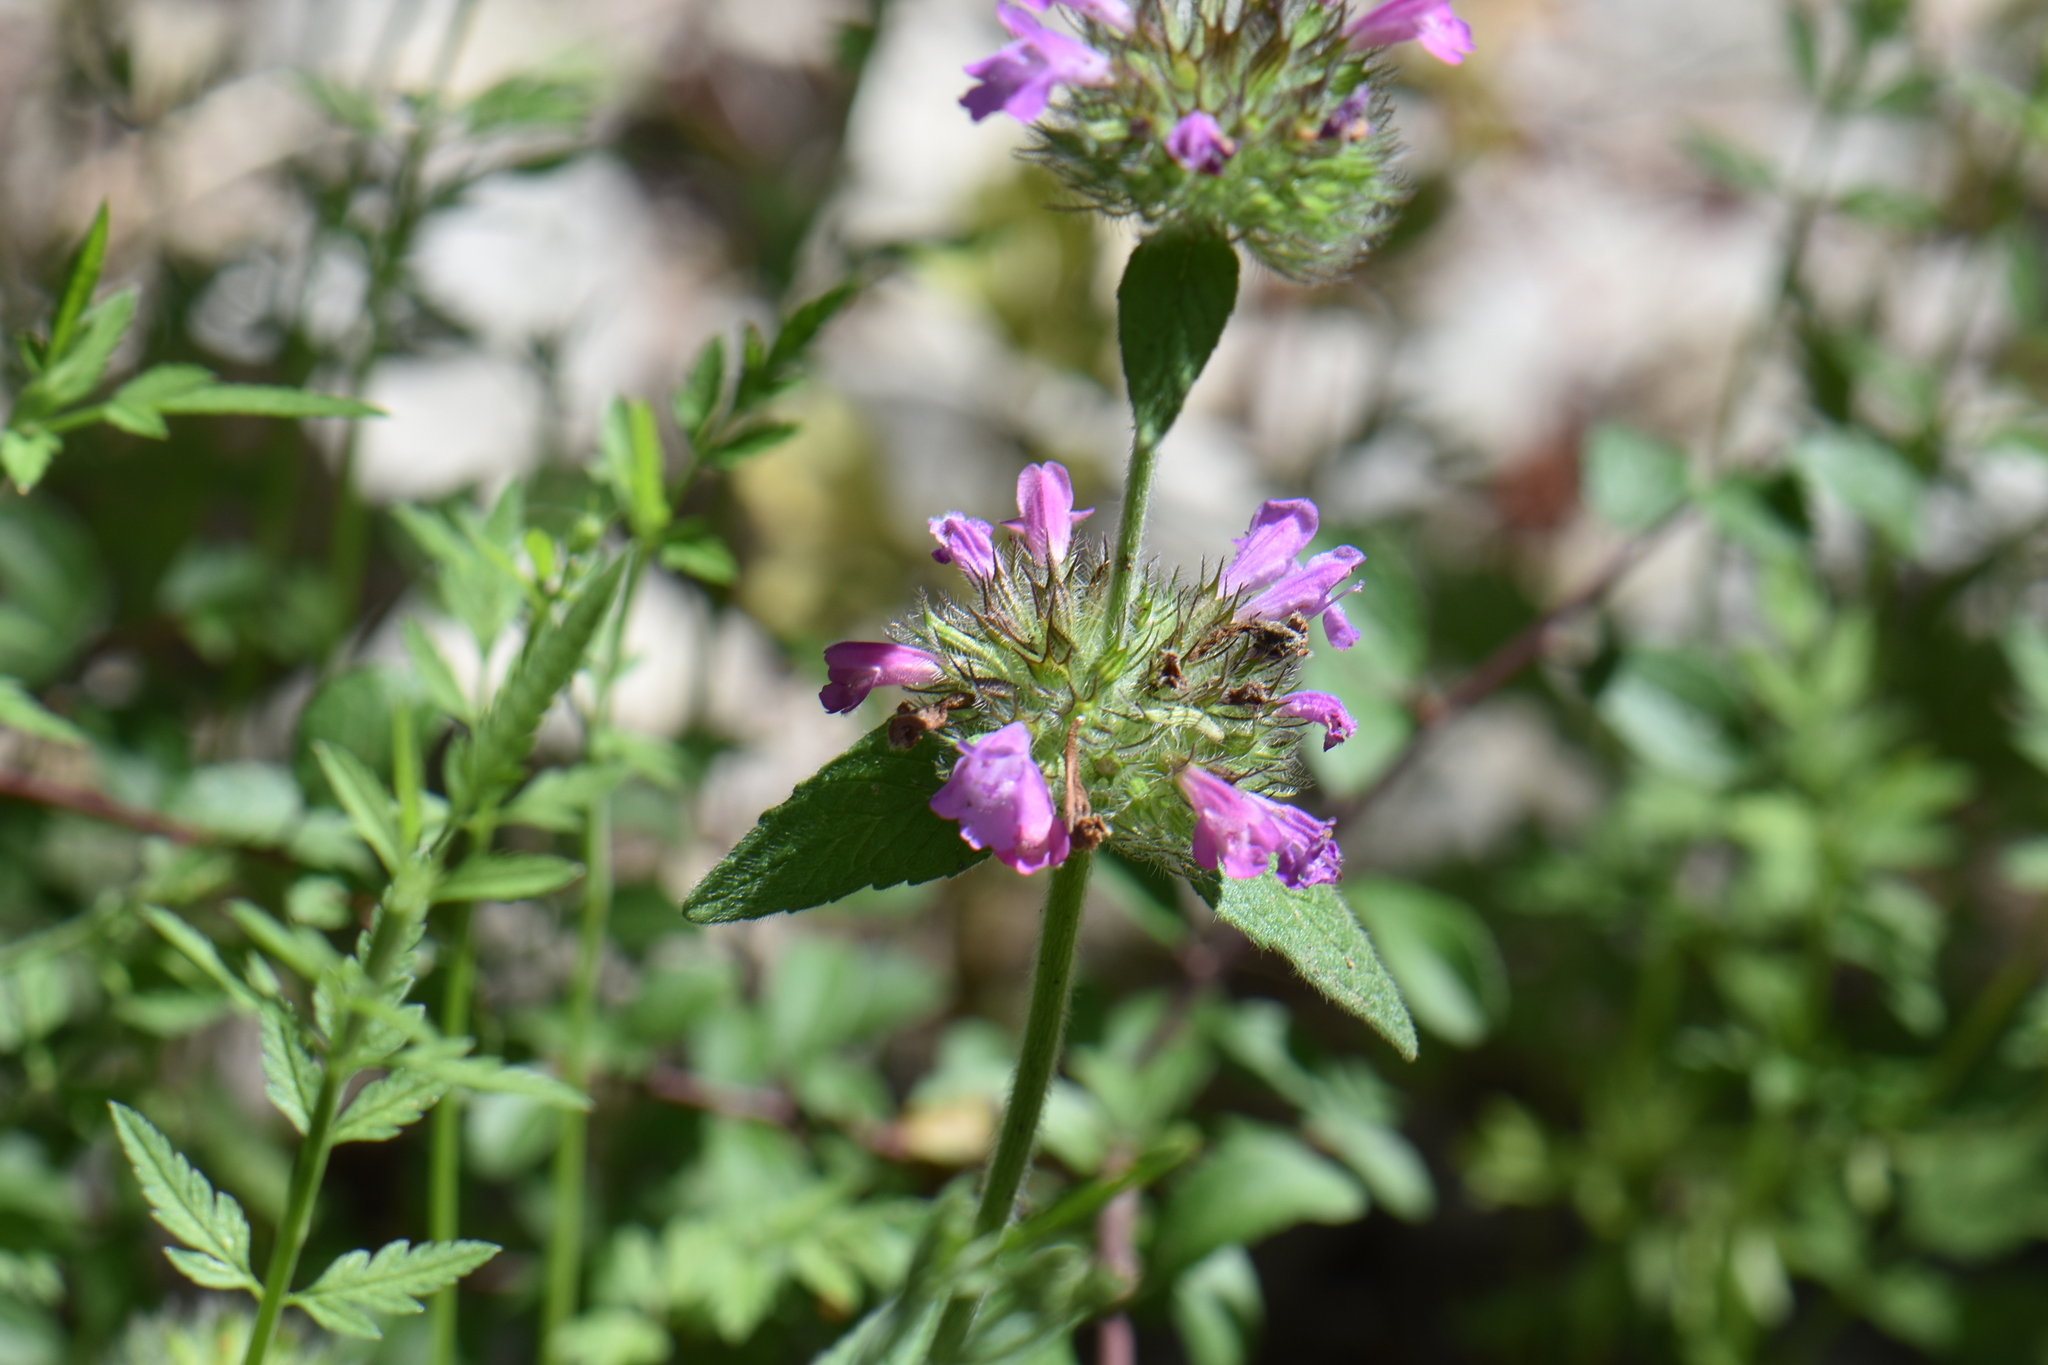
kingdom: Plantae
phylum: Tracheophyta
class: Magnoliopsida
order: Lamiales
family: Lamiaceae
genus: Clinopodium
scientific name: Clinopodium vulgare
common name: Wild basil
